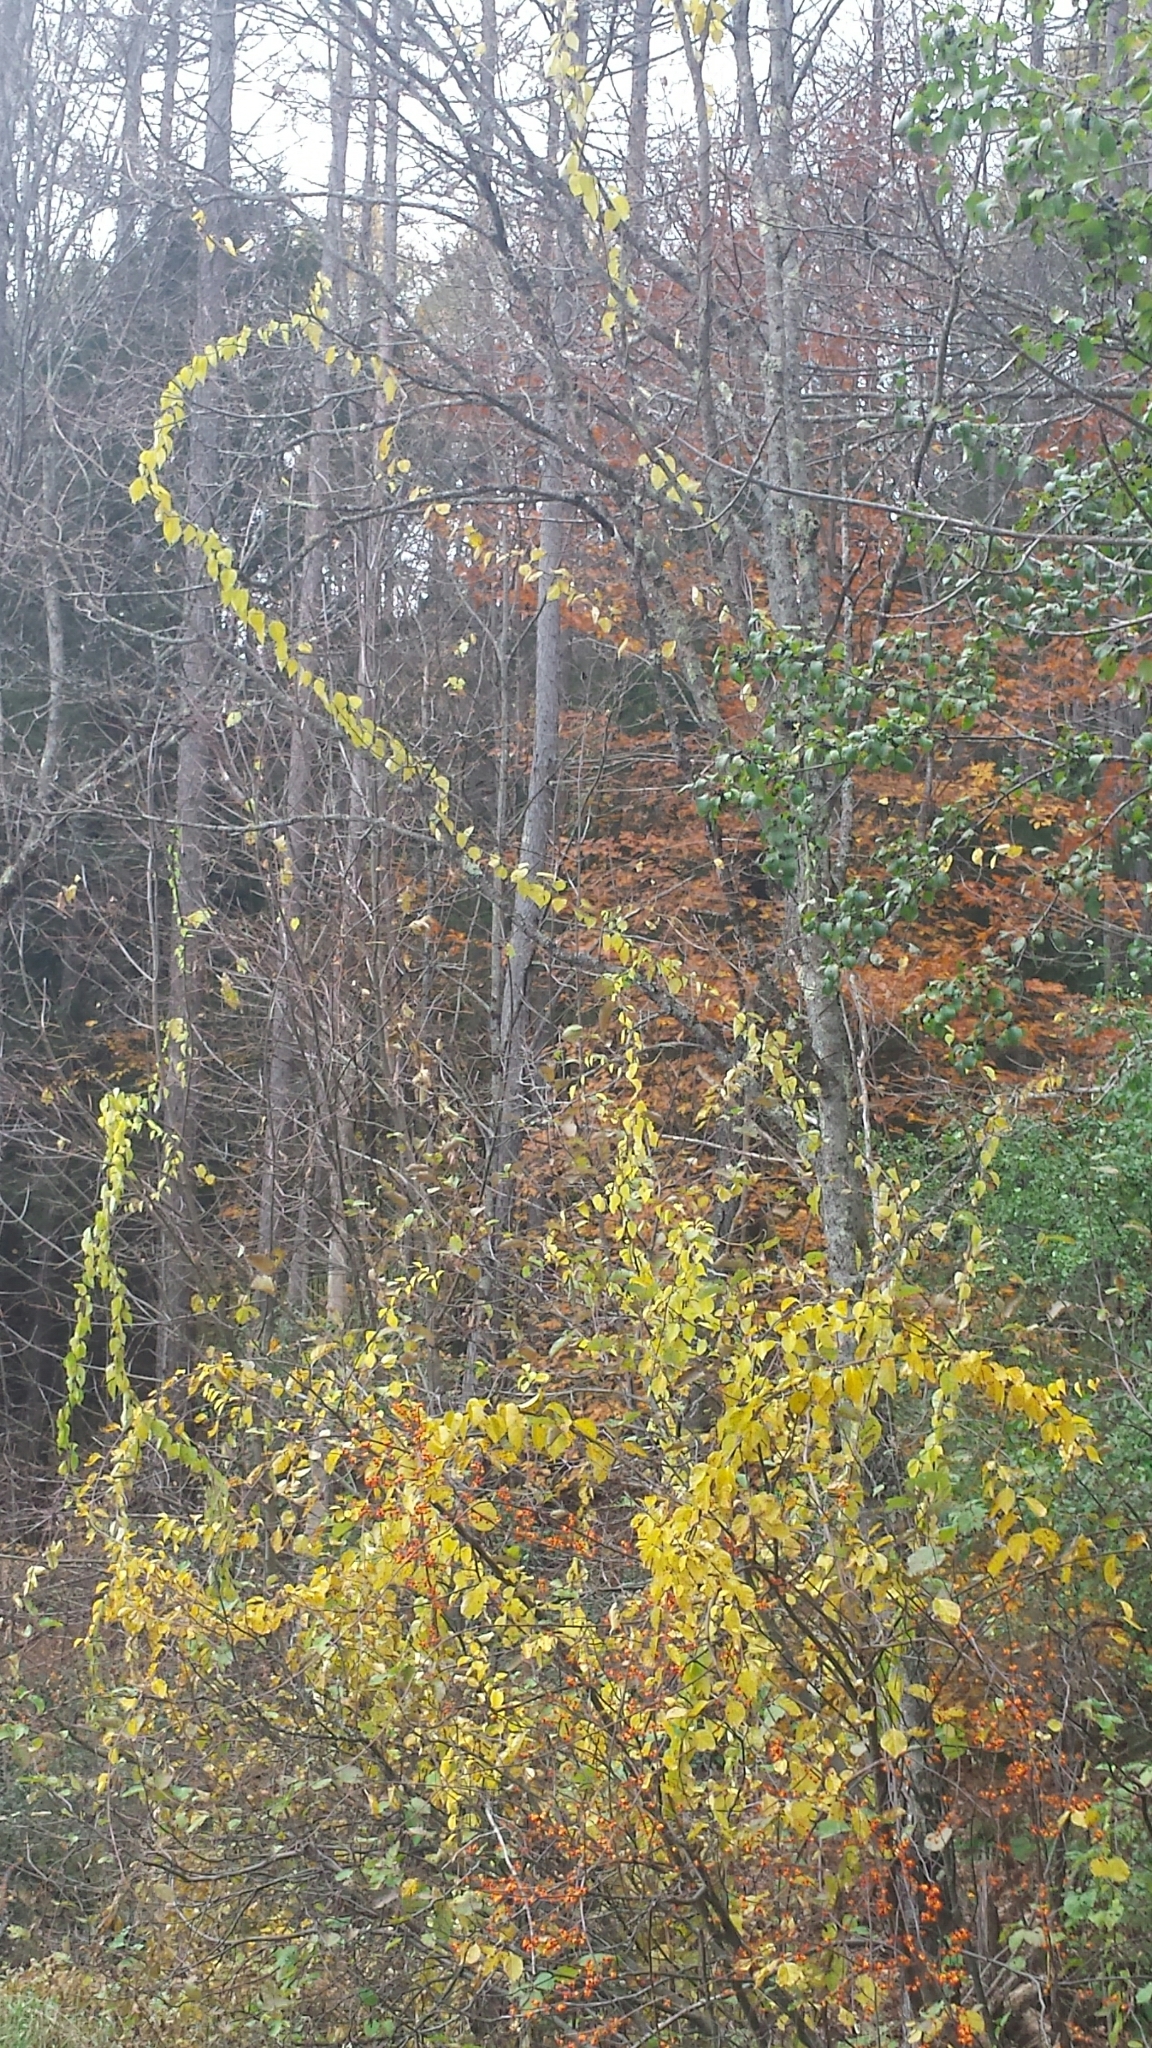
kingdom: Plantae
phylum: Tracheophyta
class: Magnoliopsida
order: Celastrales
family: Celastraceae
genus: Celastrus
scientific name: Celastrus orbiculatus
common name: Oriental bittersweet
